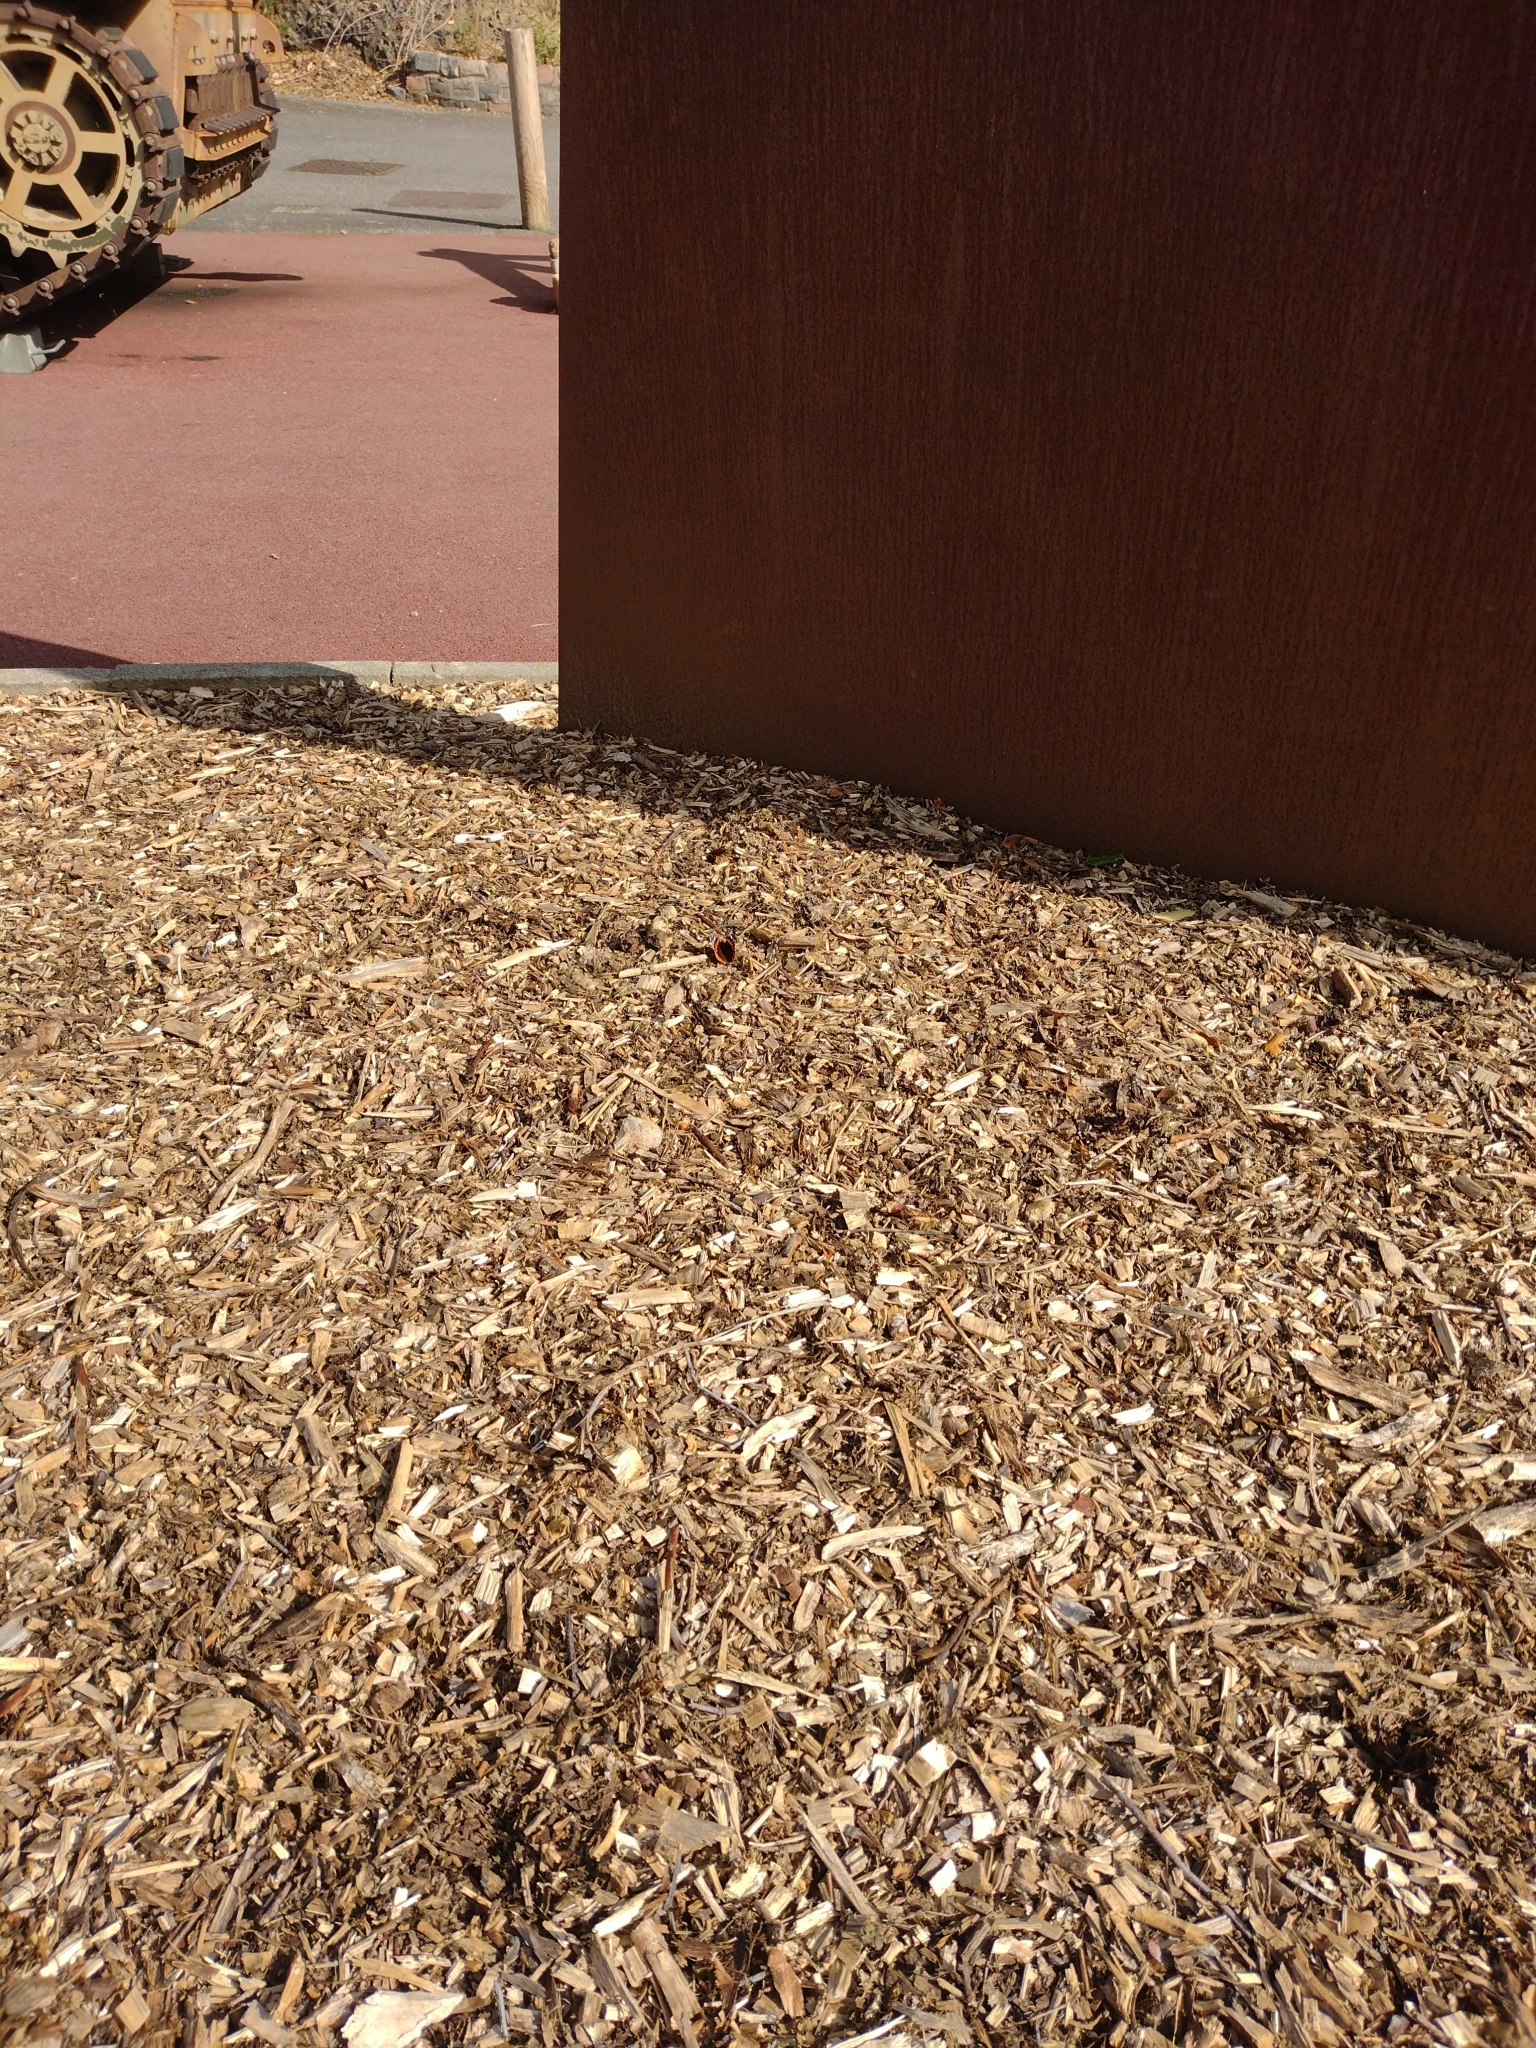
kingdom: Animalia
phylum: Arthropoda
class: Insecta
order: Lepidoptera
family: Nymphalidae
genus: Vanessa
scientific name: Vanessa atalanta
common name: Red admiral
